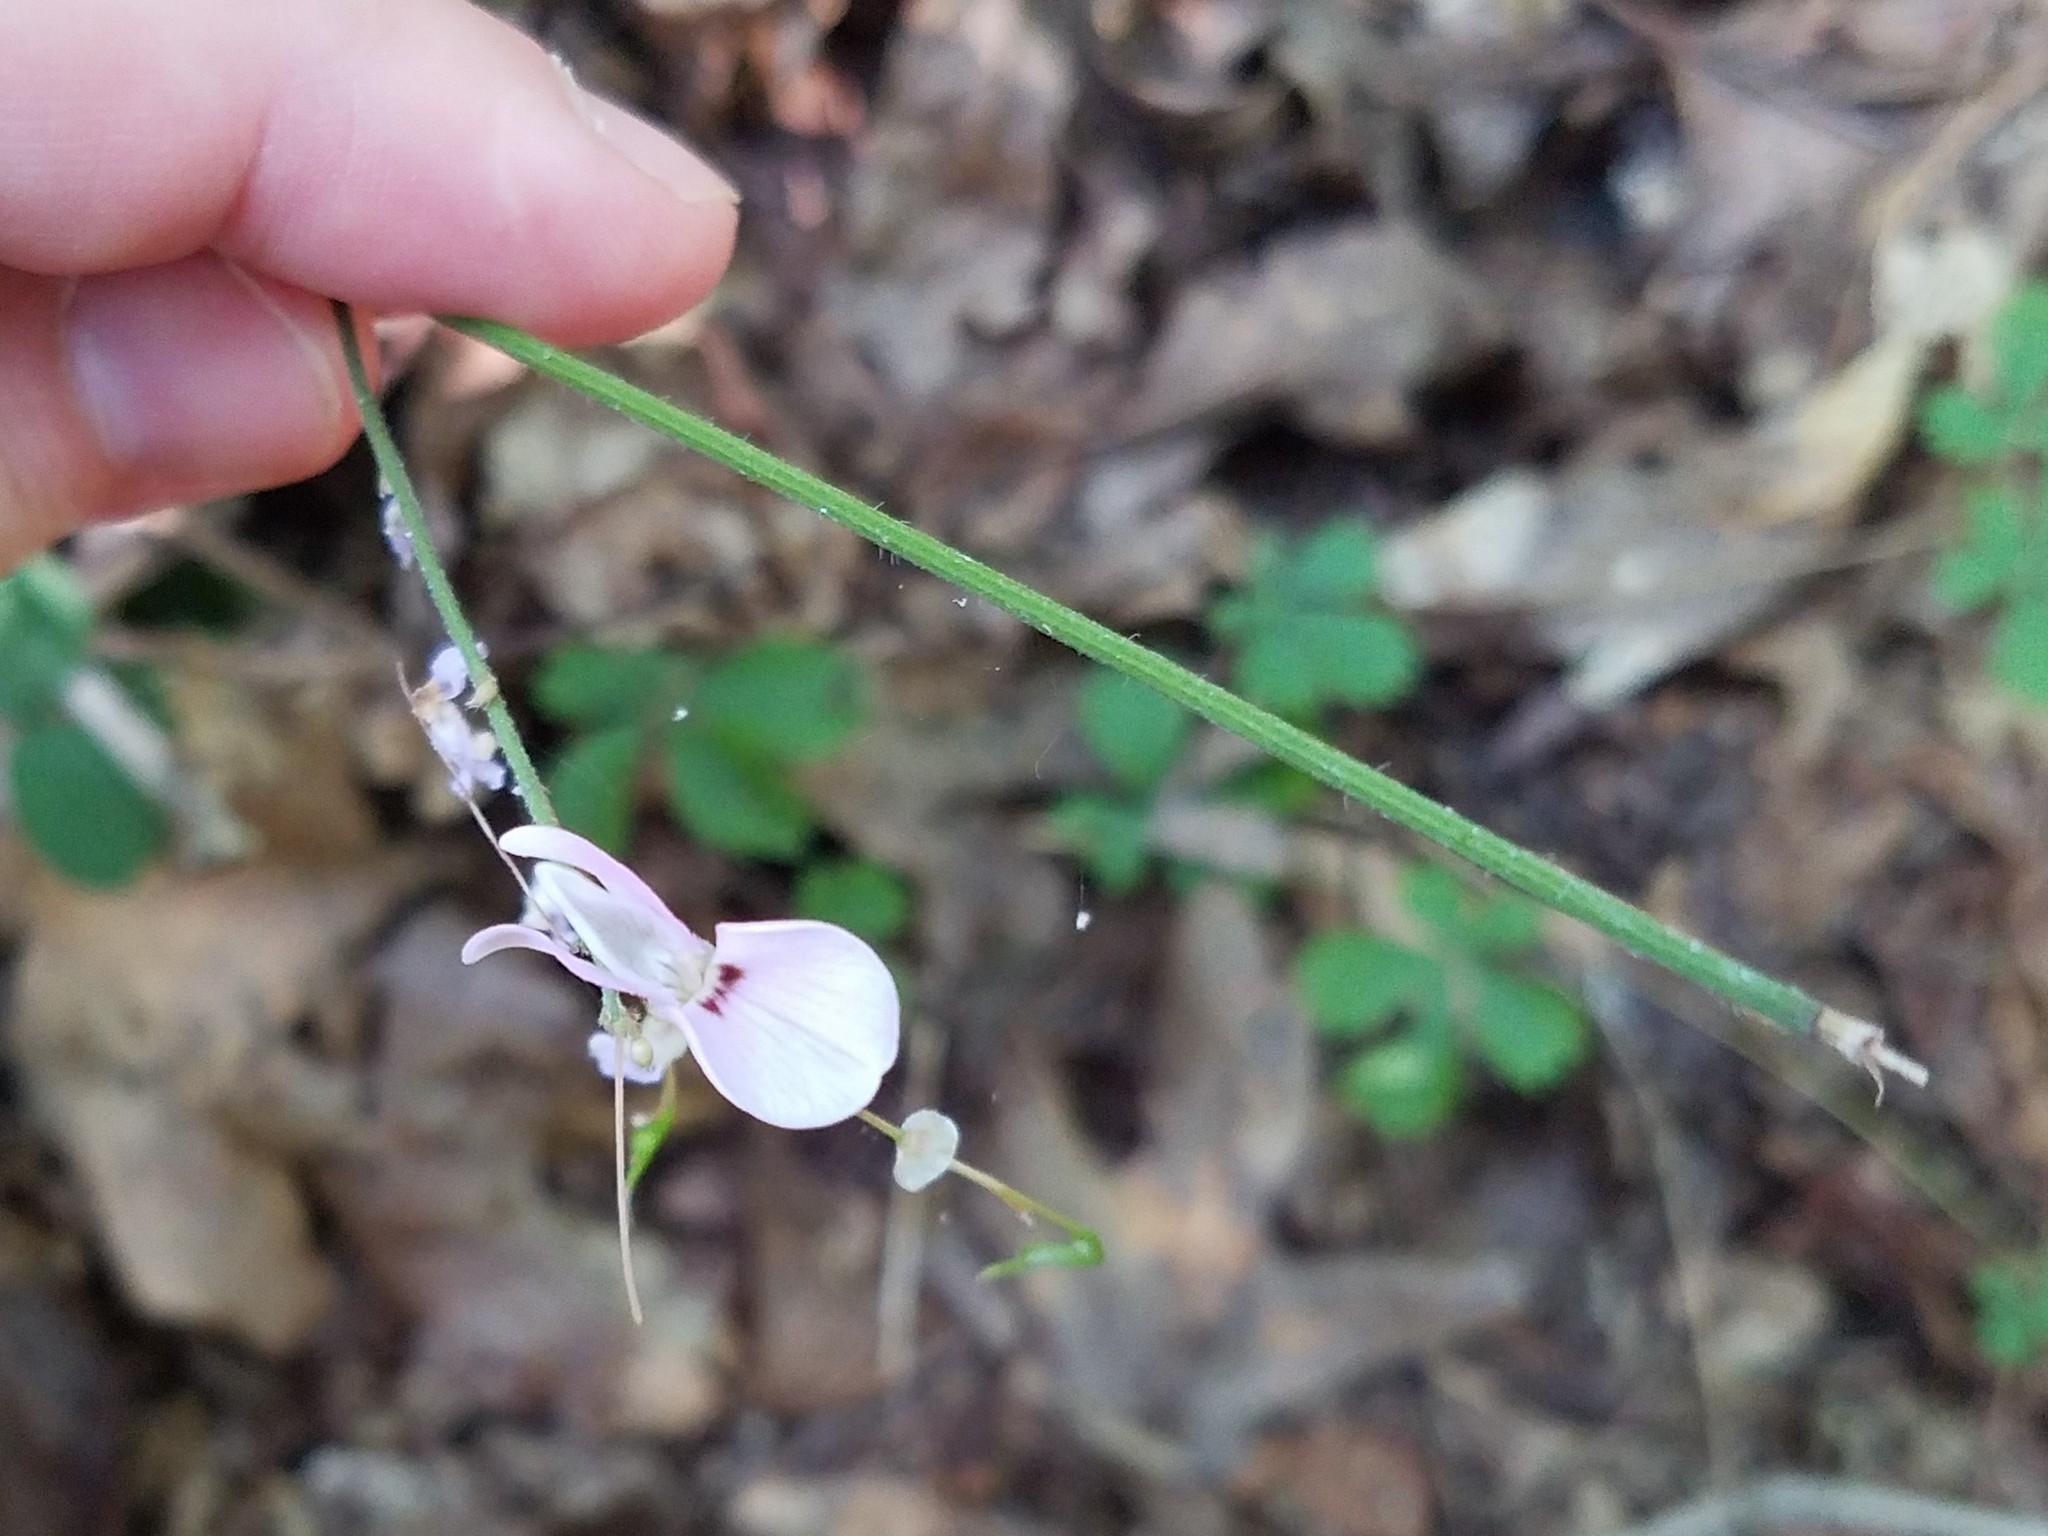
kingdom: Plantae
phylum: Tracheophyta
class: Magnoliopsida
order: Fabales
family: Fabaceae
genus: Hylodesmum
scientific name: Hylodesmum nudiflorum
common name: Bare-stemmed tick-trefoil
